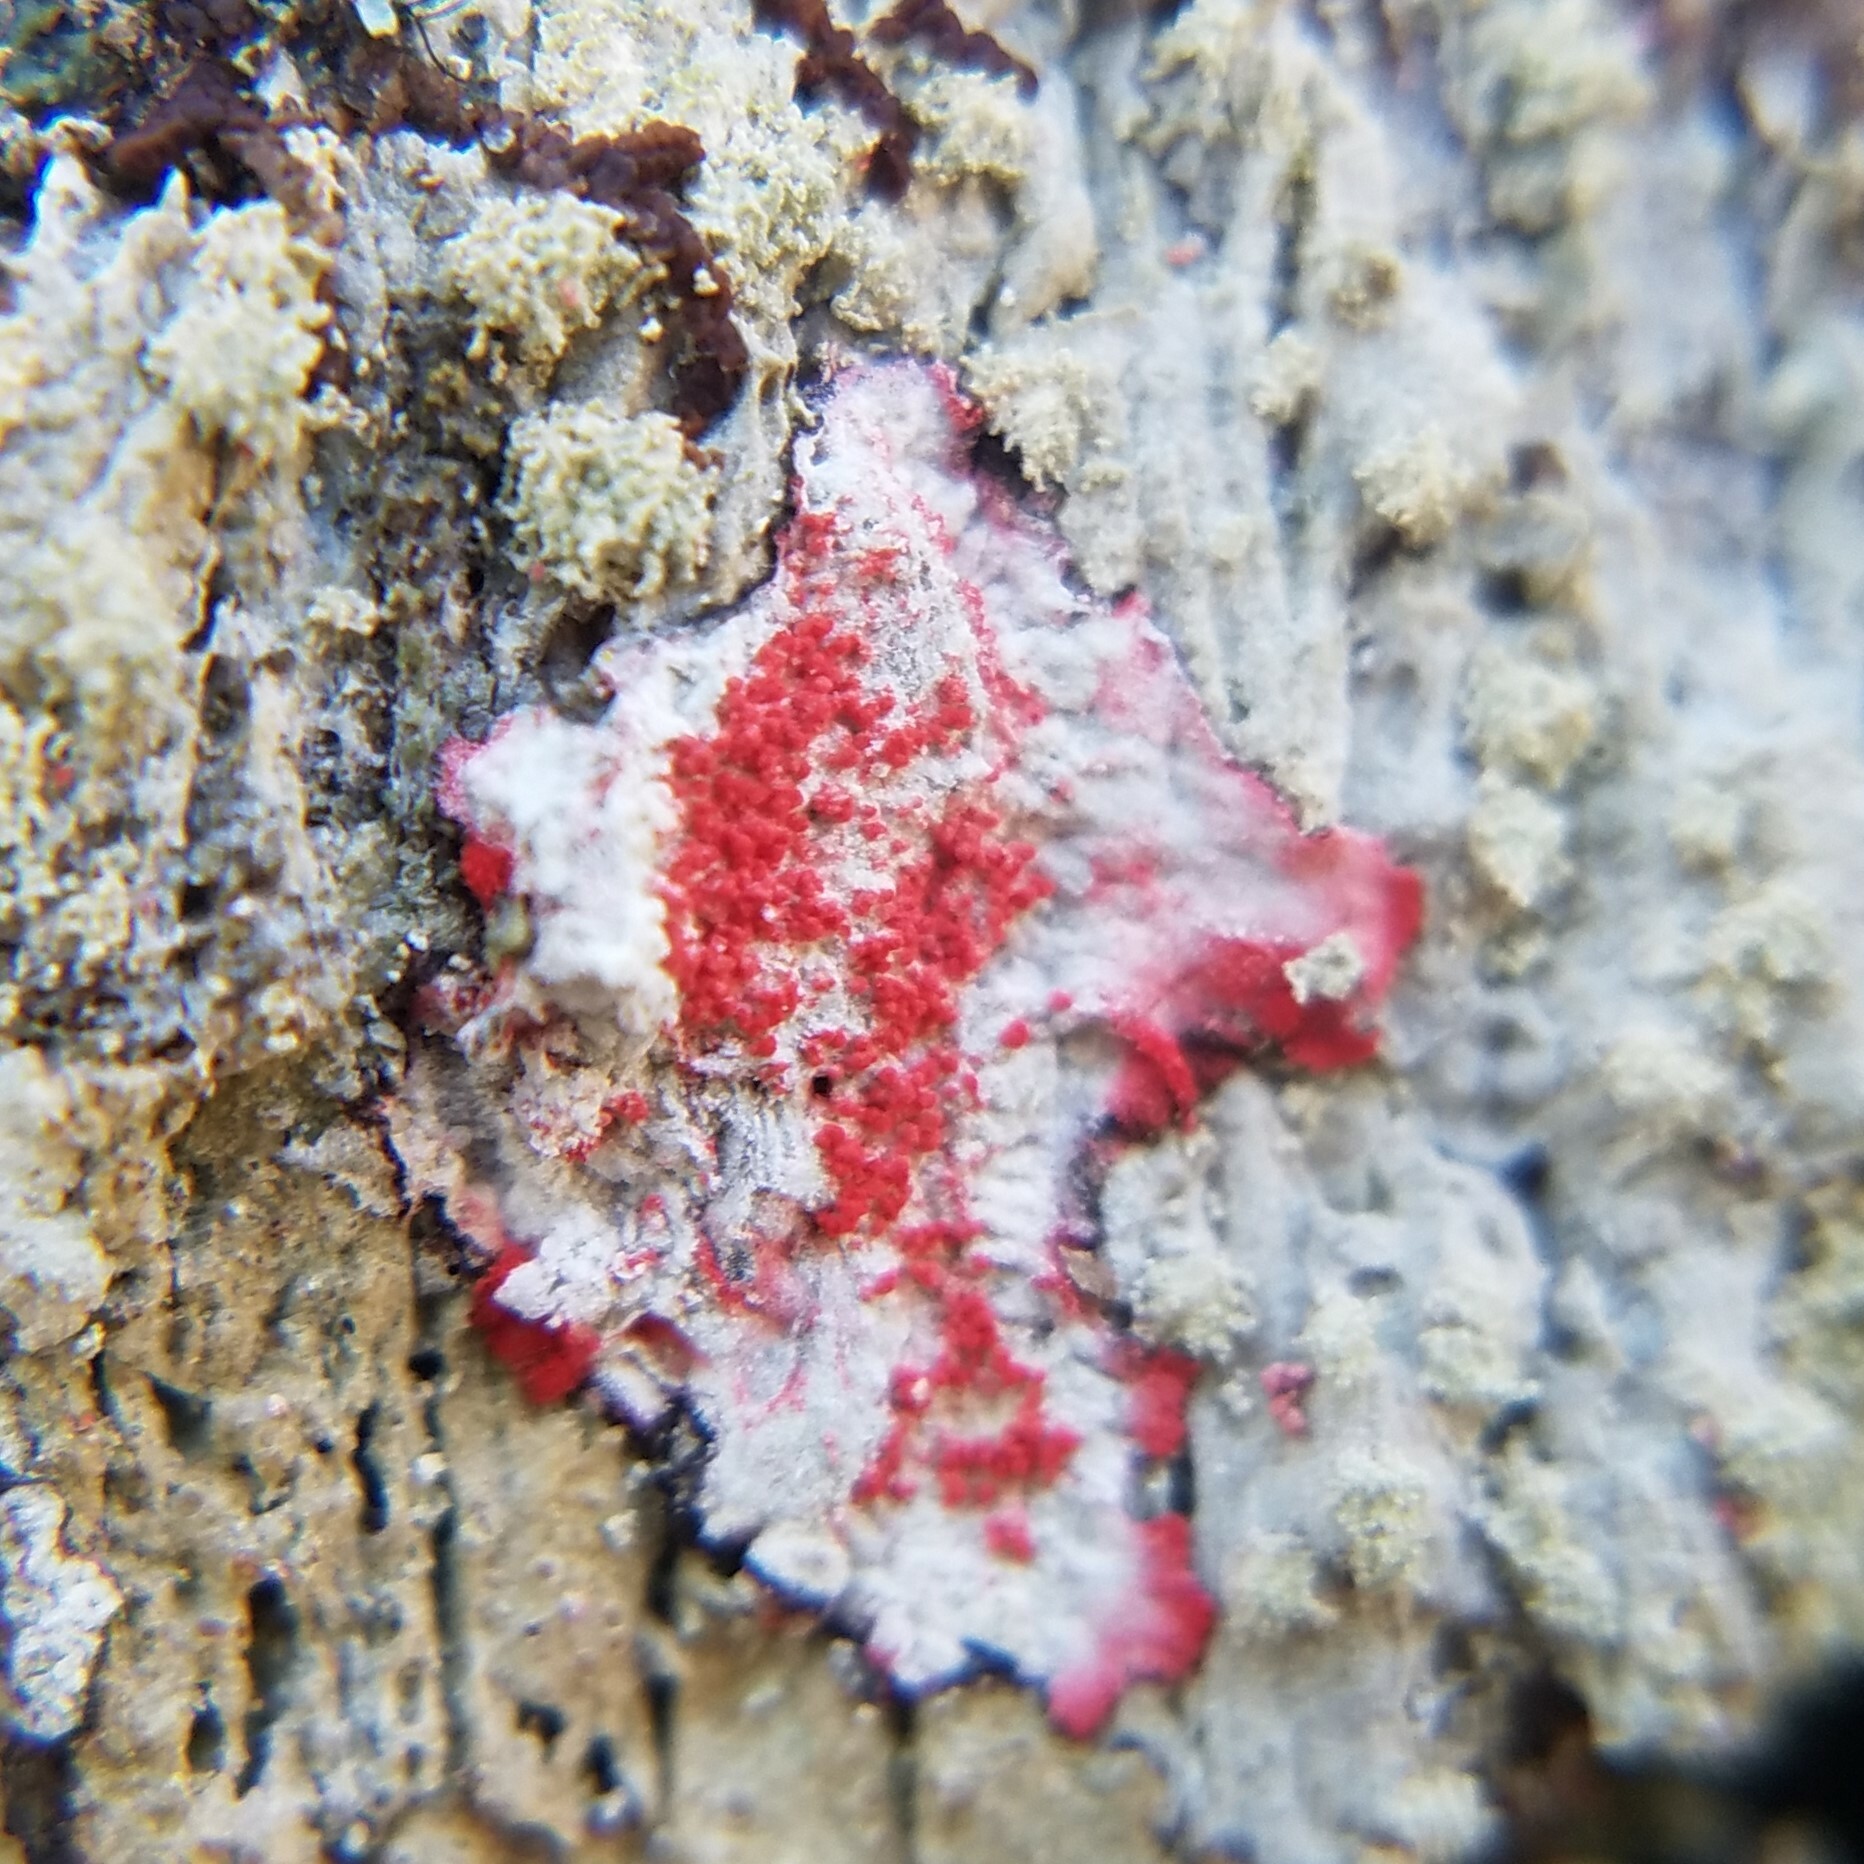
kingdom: Fungi
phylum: Ascomycota
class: Arthoniomycetes
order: Arthoniales
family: Arthoniaceae
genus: Herpothallon
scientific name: Herpothallon rubrocinctum
